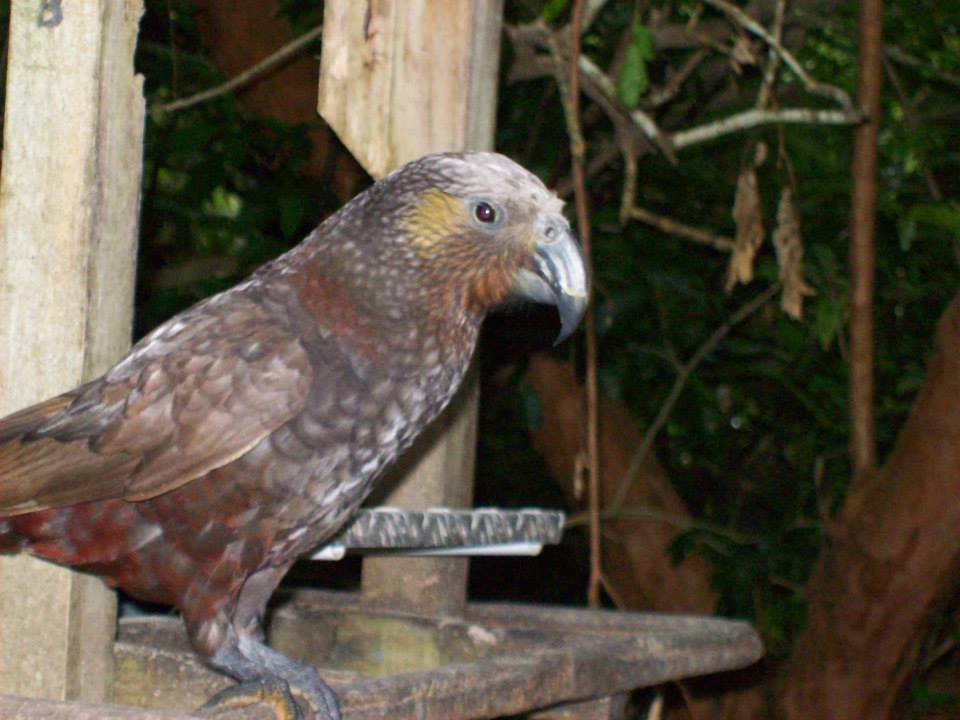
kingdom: Animalia
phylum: Chordata
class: Aves
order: Psittaciformes
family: Psittacidae
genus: Nestor
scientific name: Nestor meridionalis
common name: New zealand kaka
